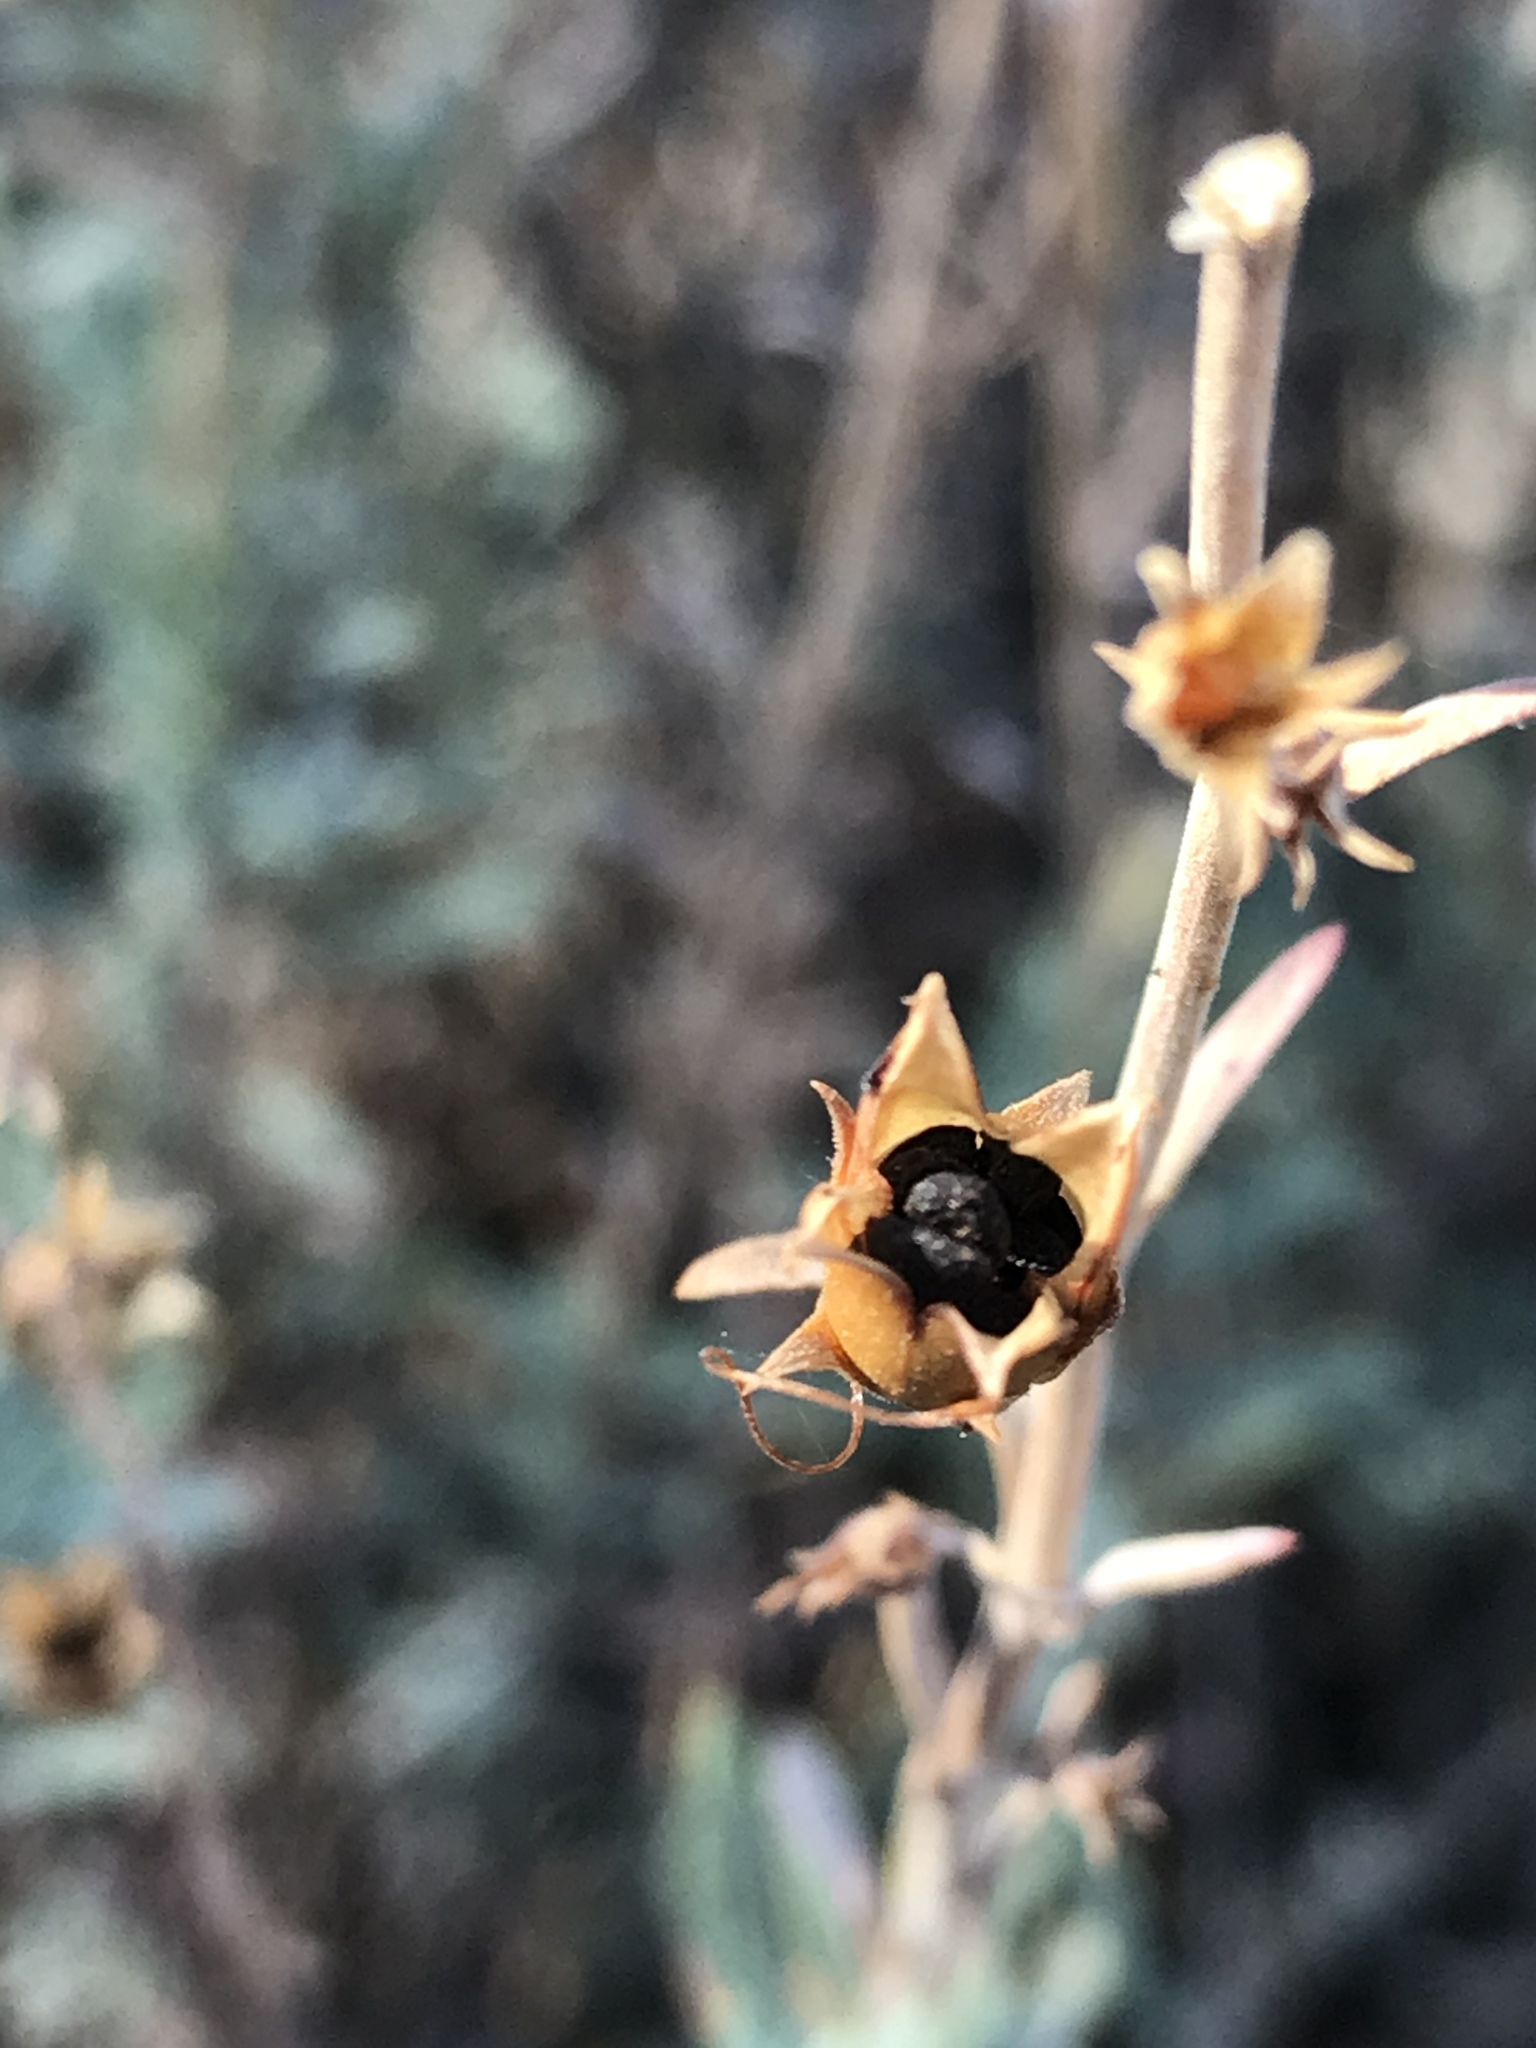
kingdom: Plantae
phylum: Tracheophyta
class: Magnoliopsida
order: Lamiales
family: Plantaginaceae
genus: Penstemon
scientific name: Penstemon californicus
